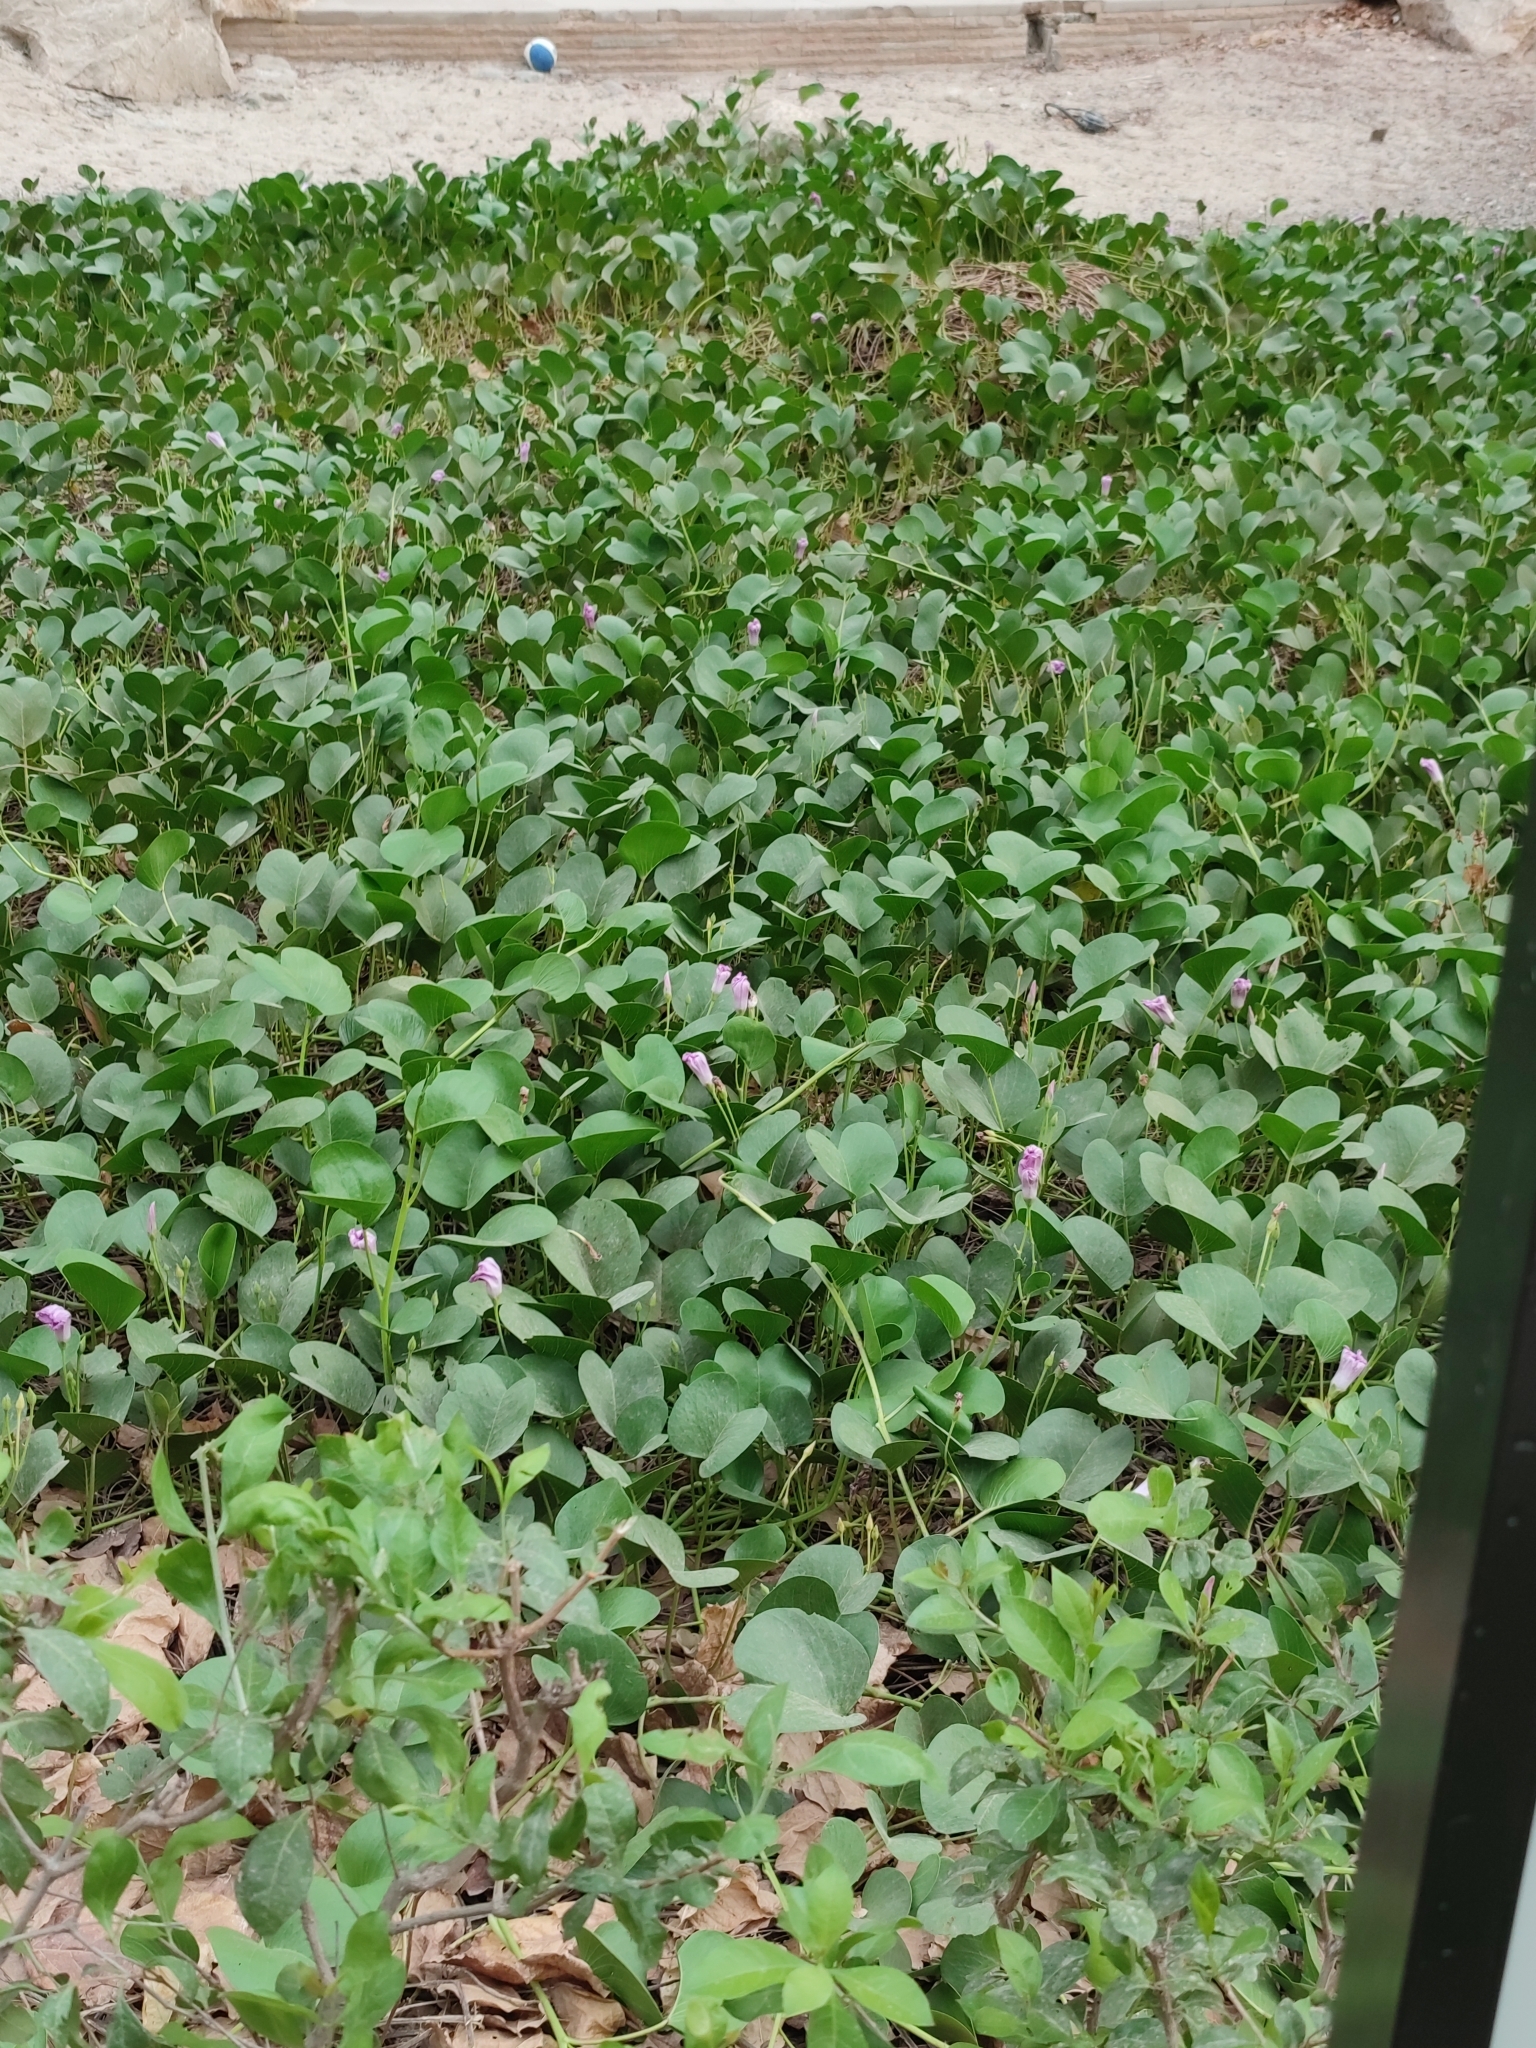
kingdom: Plantae
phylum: Tracheophyta
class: Magnoliopsida
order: Solanales
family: Convolvulaceae
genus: Ipomoea
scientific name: Ipomoea pes-caprae
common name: Beach morning glory
